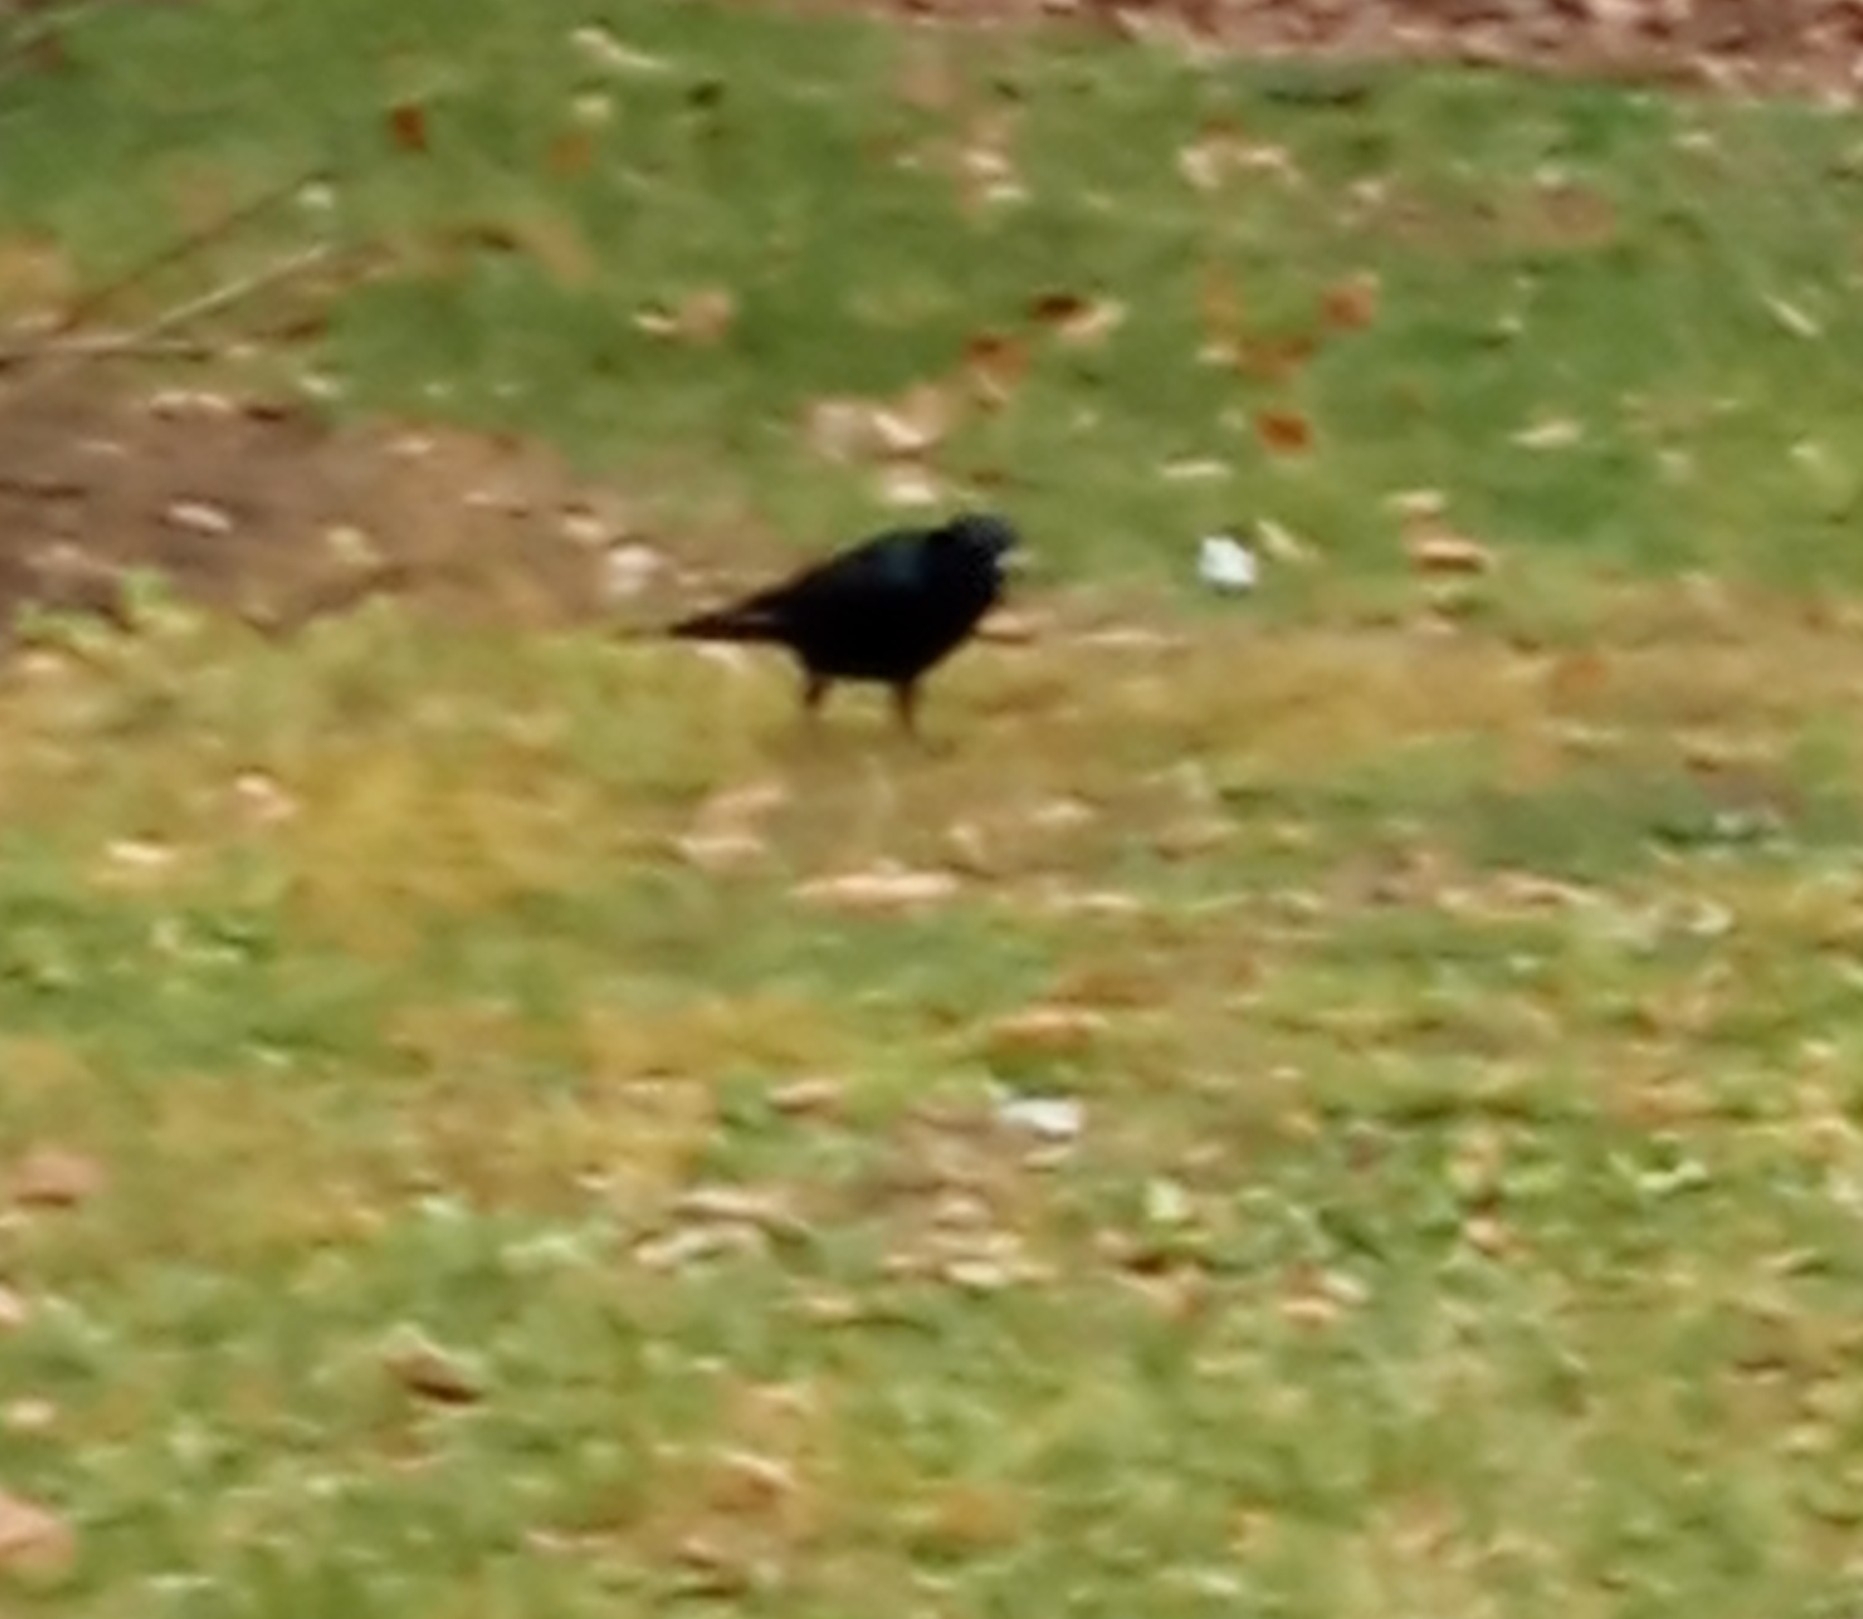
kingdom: Animalia
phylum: Chordata
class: Aves
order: Passeriformes
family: Corvidae
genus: Corvus
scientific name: Corvus frugilegus
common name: Rook
